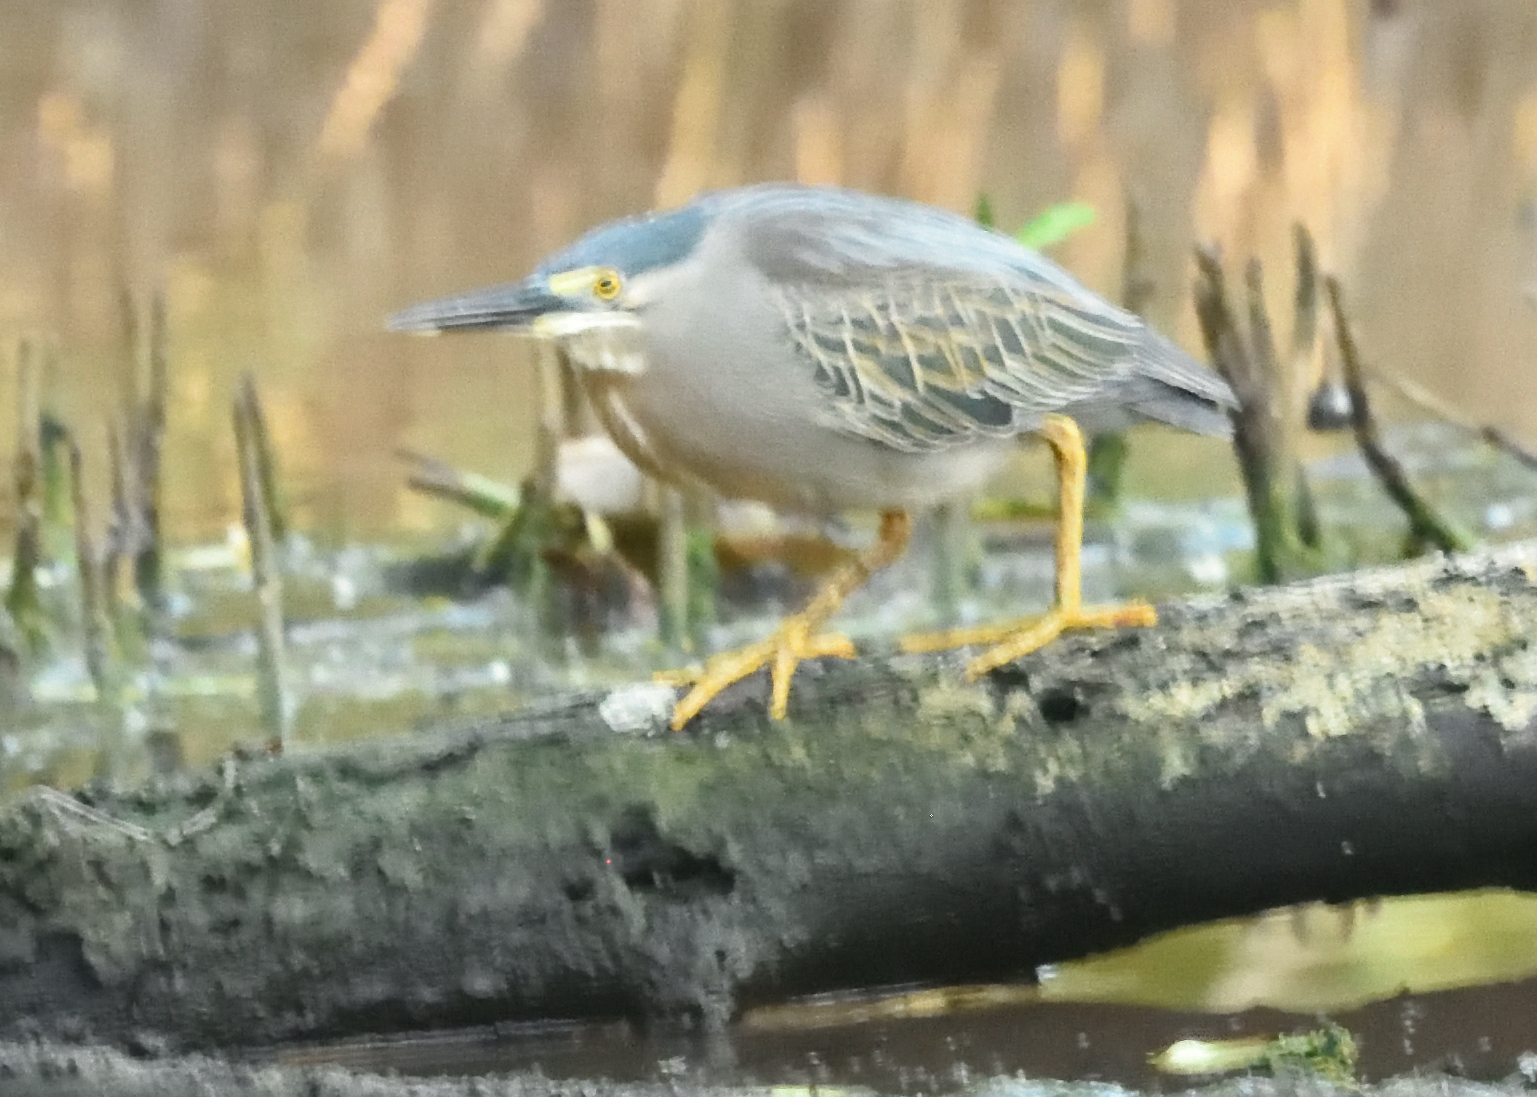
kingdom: Animalia
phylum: Chordata
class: Aves
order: Pelecaniformes
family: Ardeidae
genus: Butorides
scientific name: Butorides striata
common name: Striated heron
